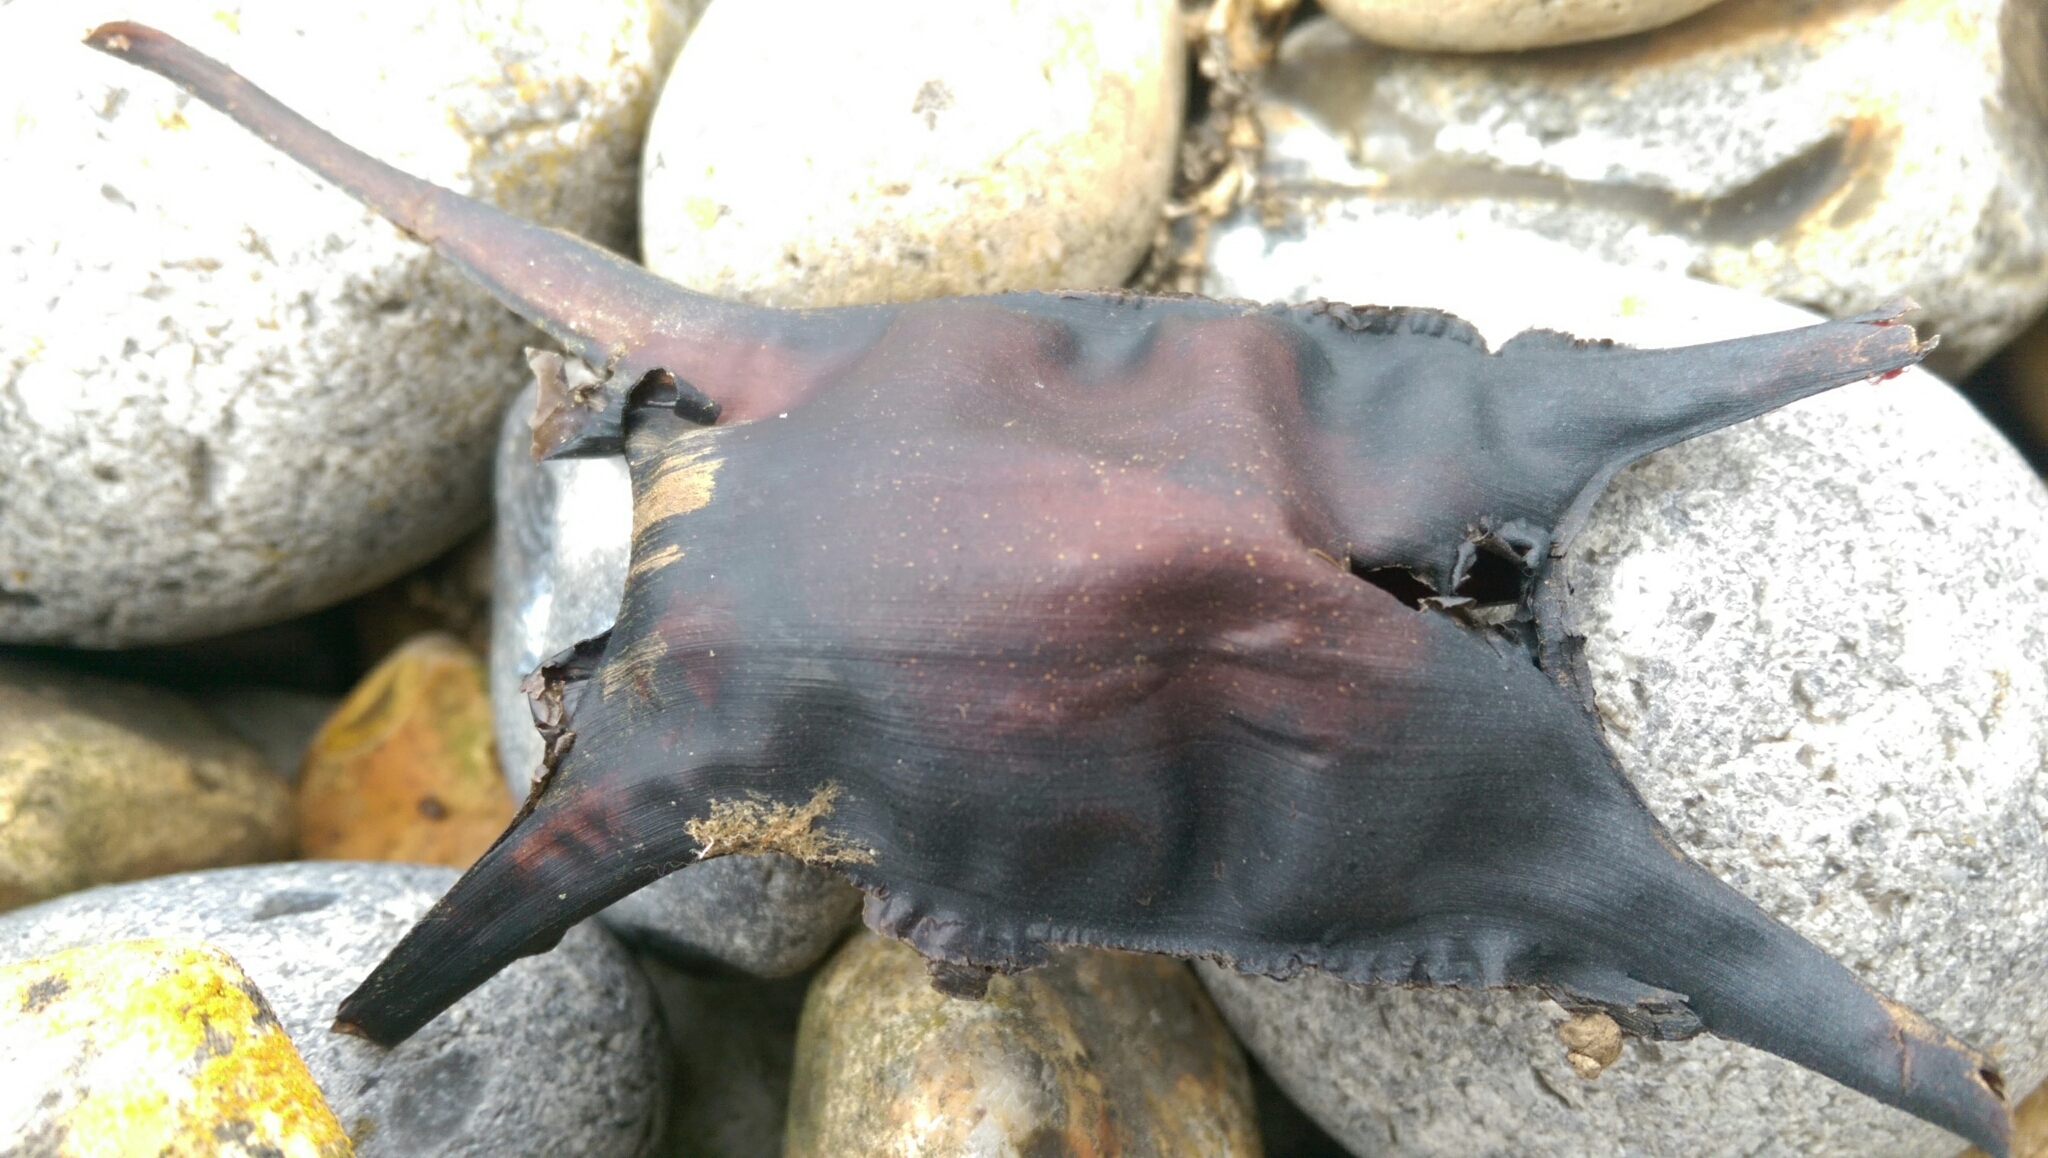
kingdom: Animalia
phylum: Chordata
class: Elasmobranchii
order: Rajiformes
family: Rajidae
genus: Raja
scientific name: Raja montagui
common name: Spotted ray
